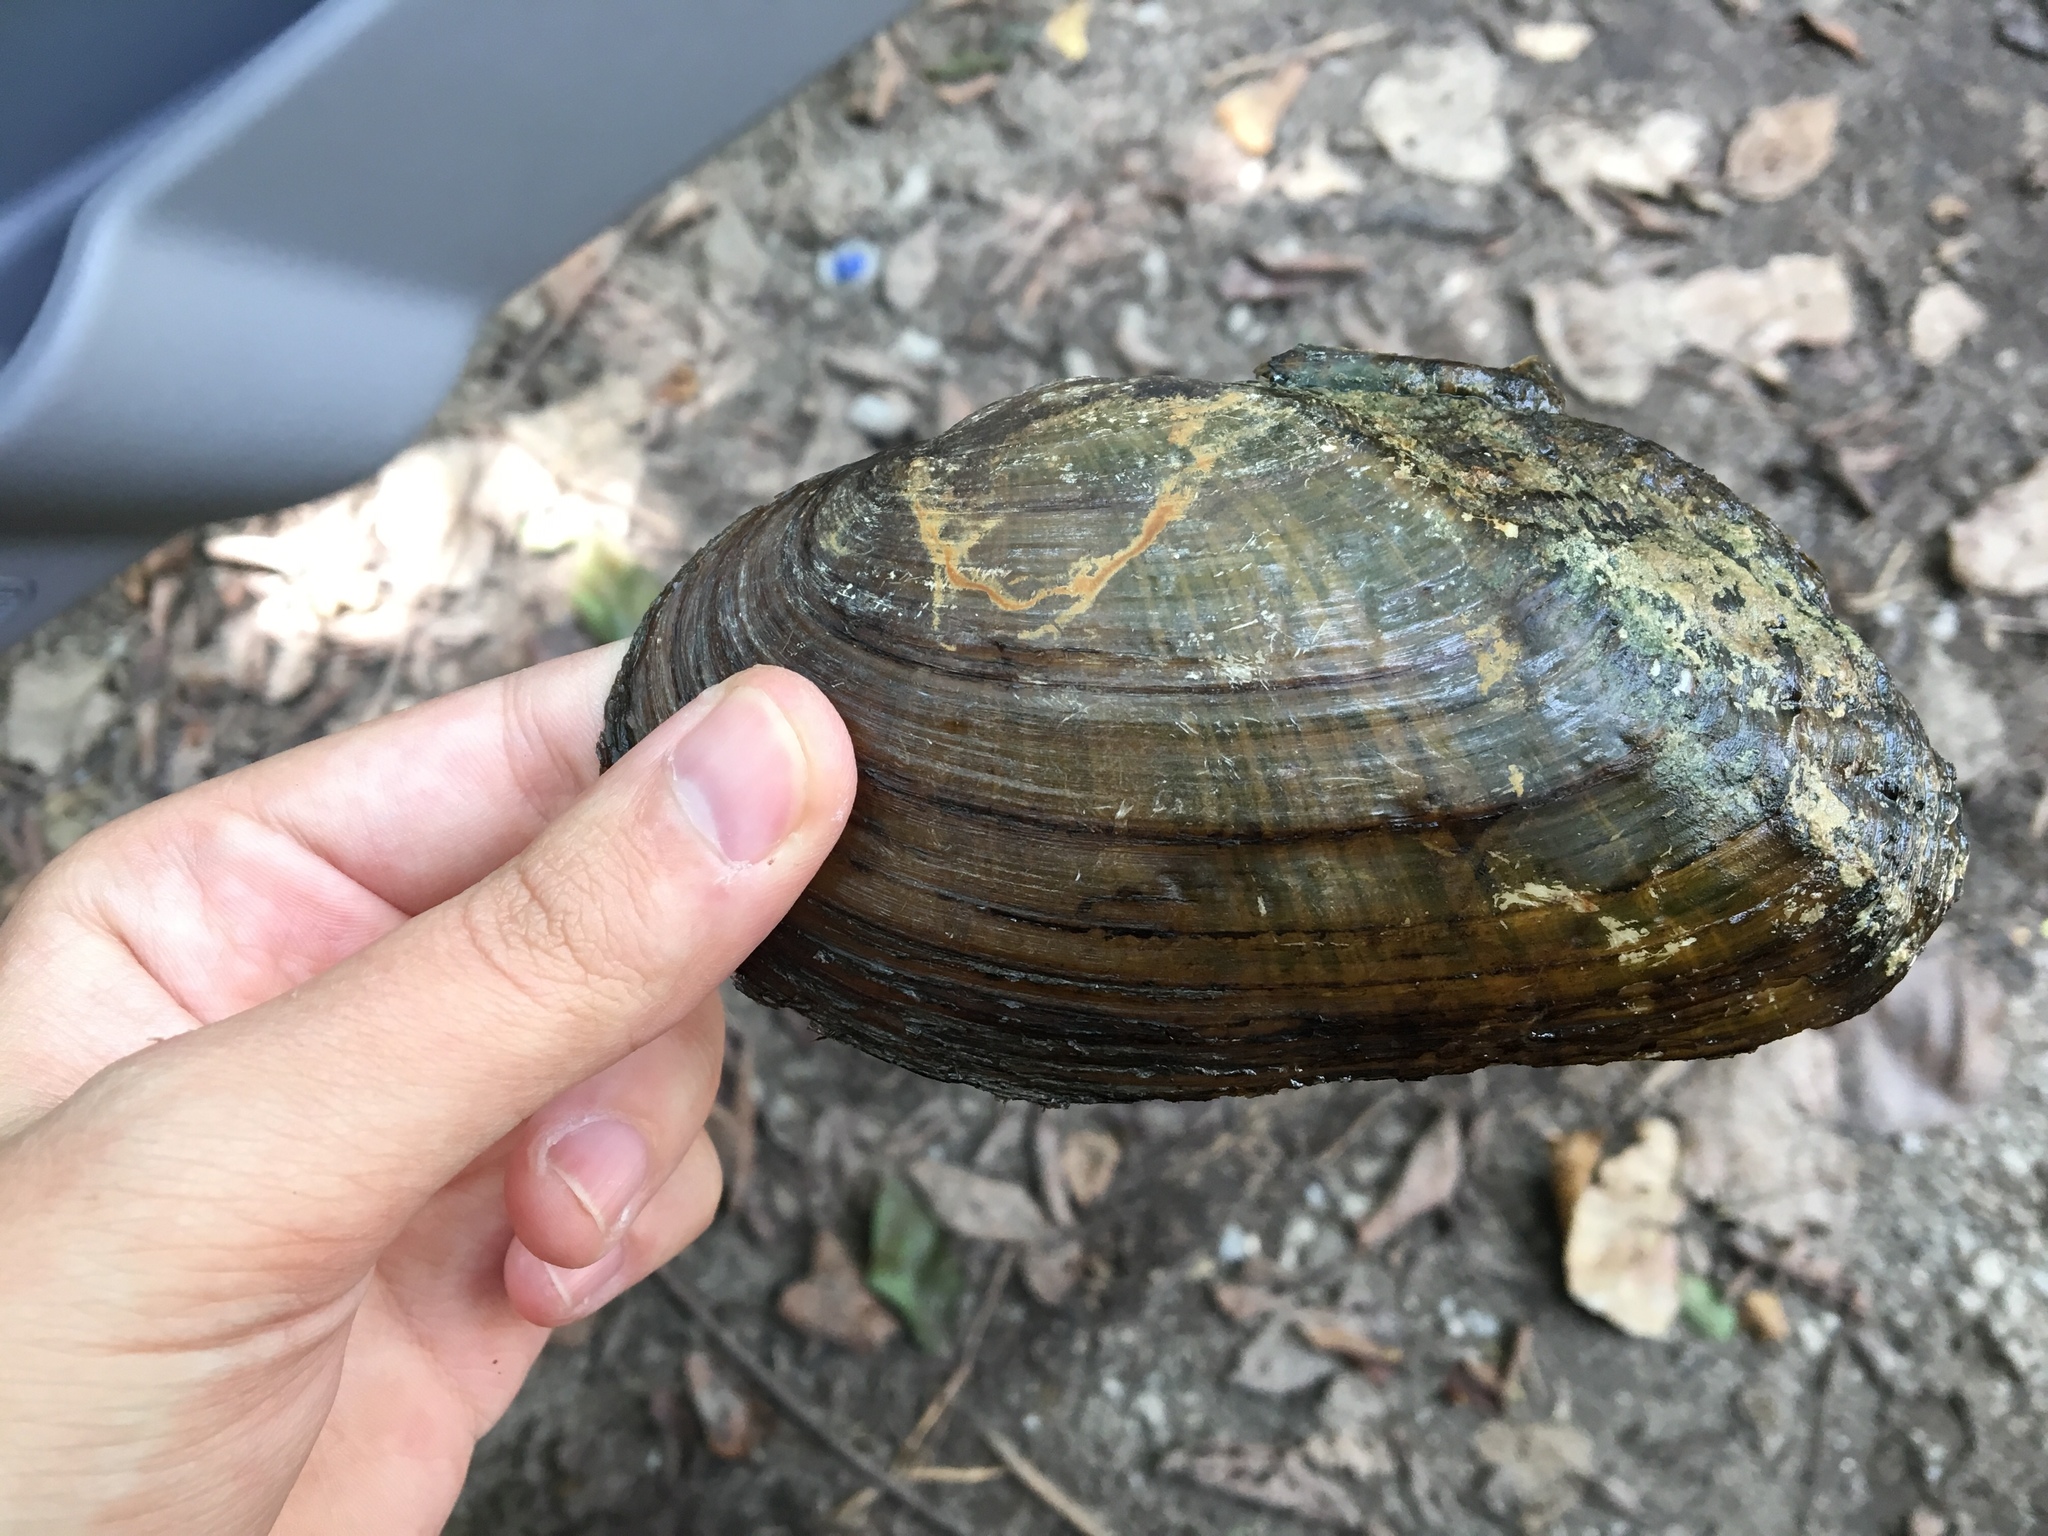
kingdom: Animalia
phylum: Mollusca
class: Bivalvia
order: Unionida
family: Unionidae
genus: Lasmigona
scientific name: Lasmigona costata
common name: Flutedshell
